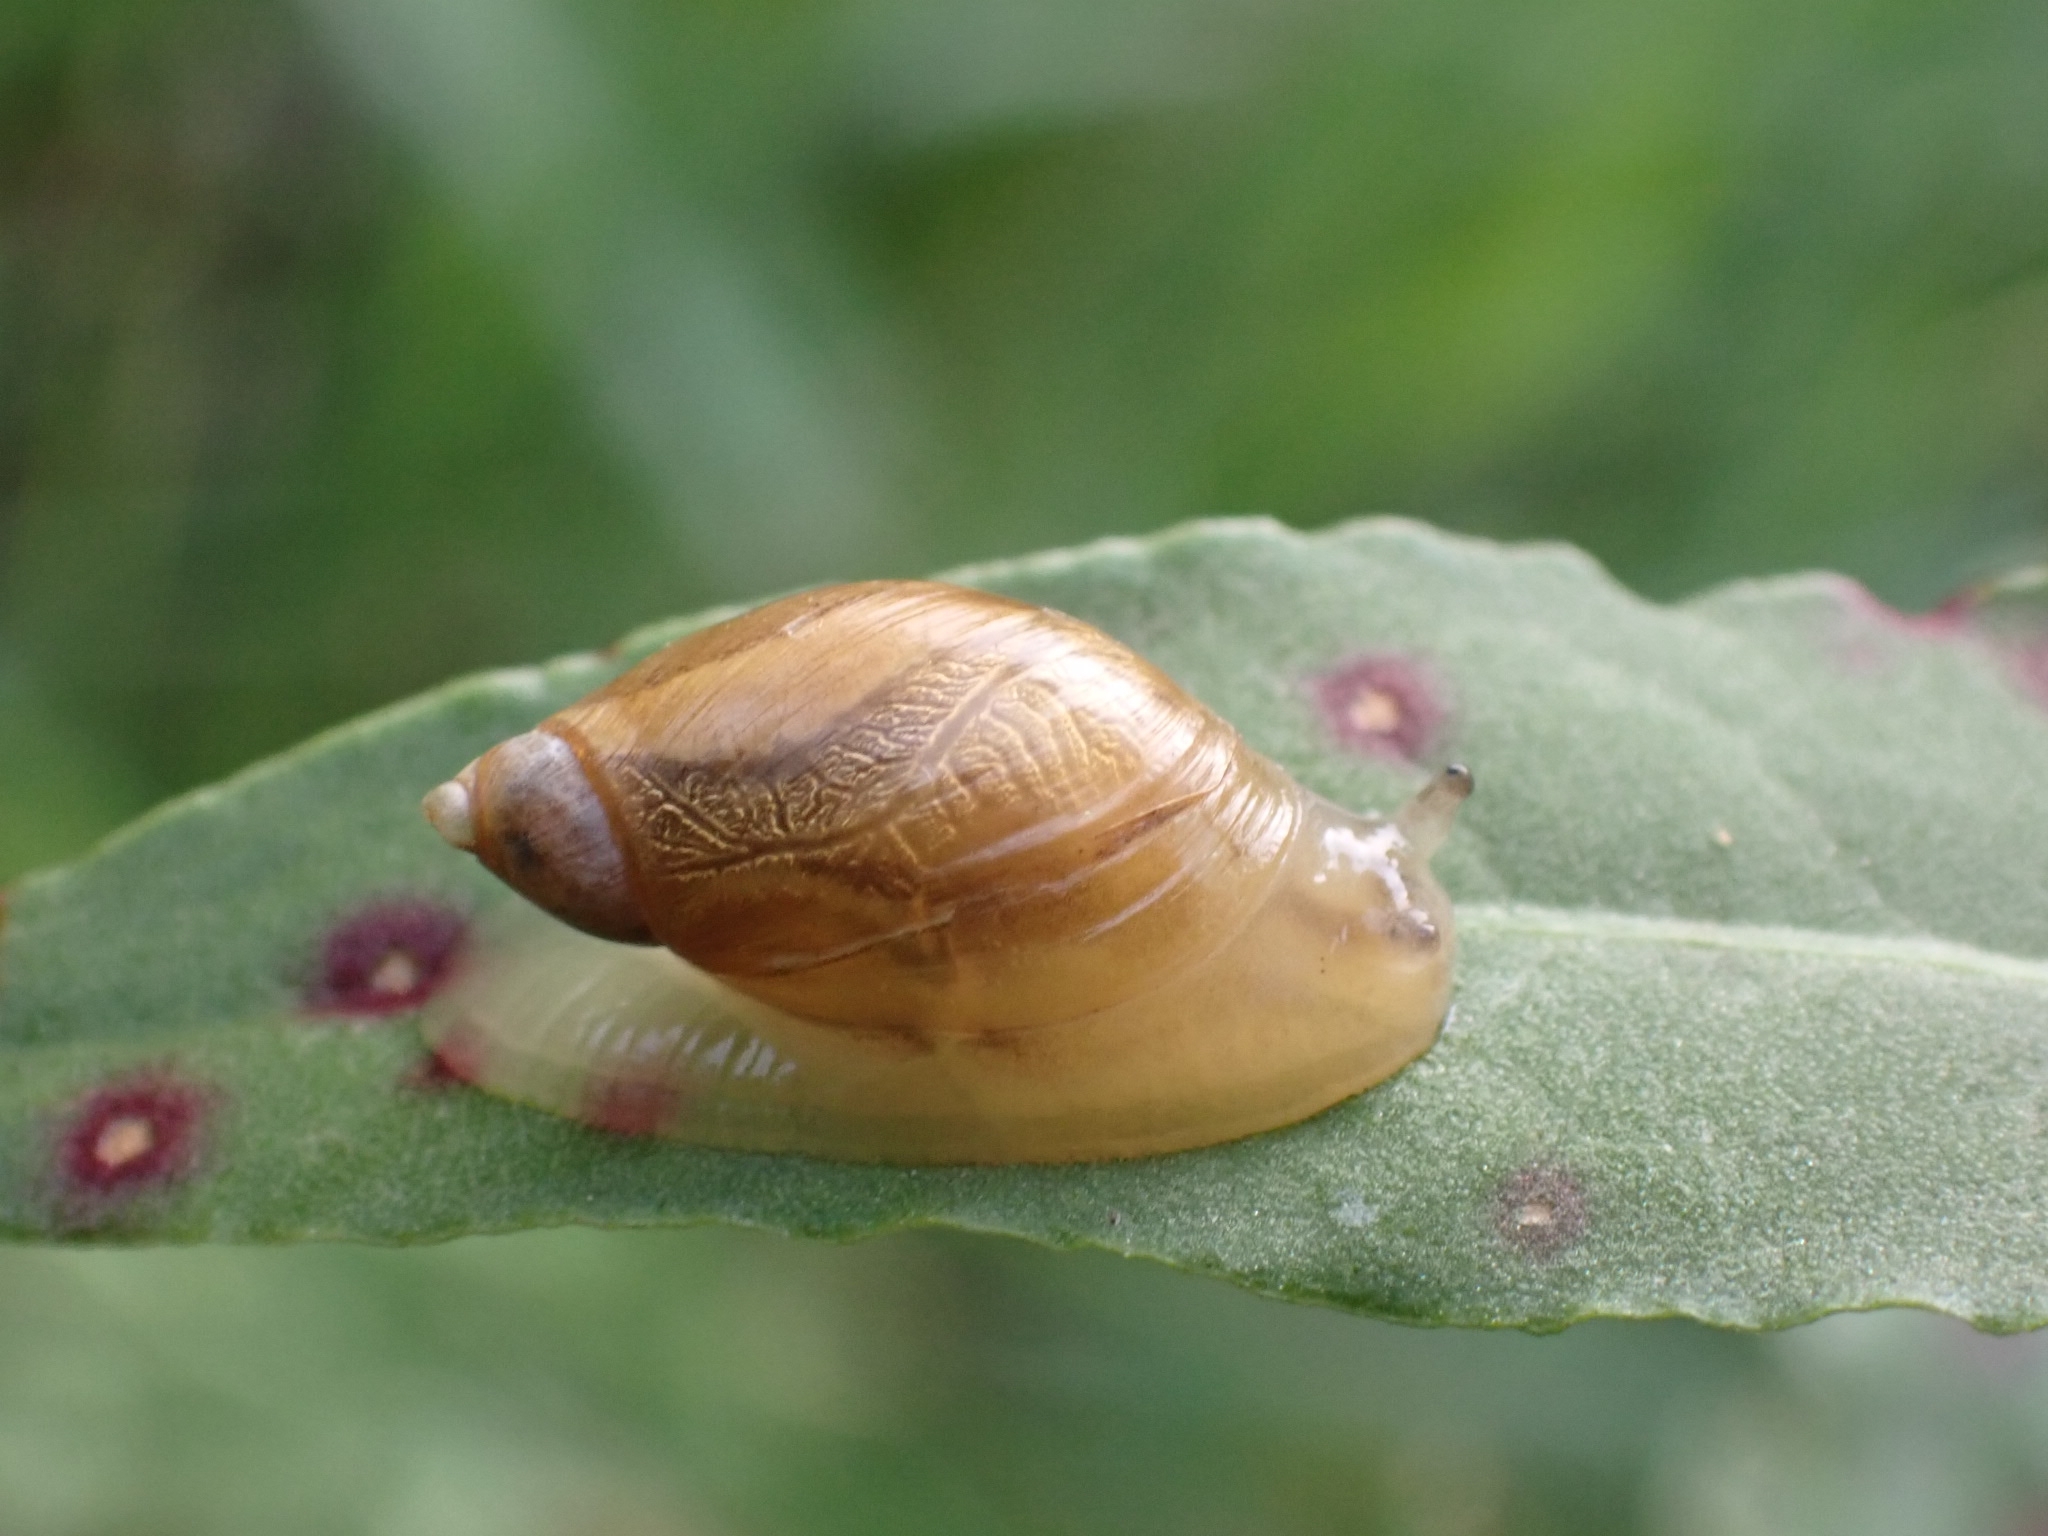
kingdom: Animalia
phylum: Mollusca
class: Gastropoda
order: Stylommatophora
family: Succineidae
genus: Succinea
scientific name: Succinea putris
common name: European ambersnail
